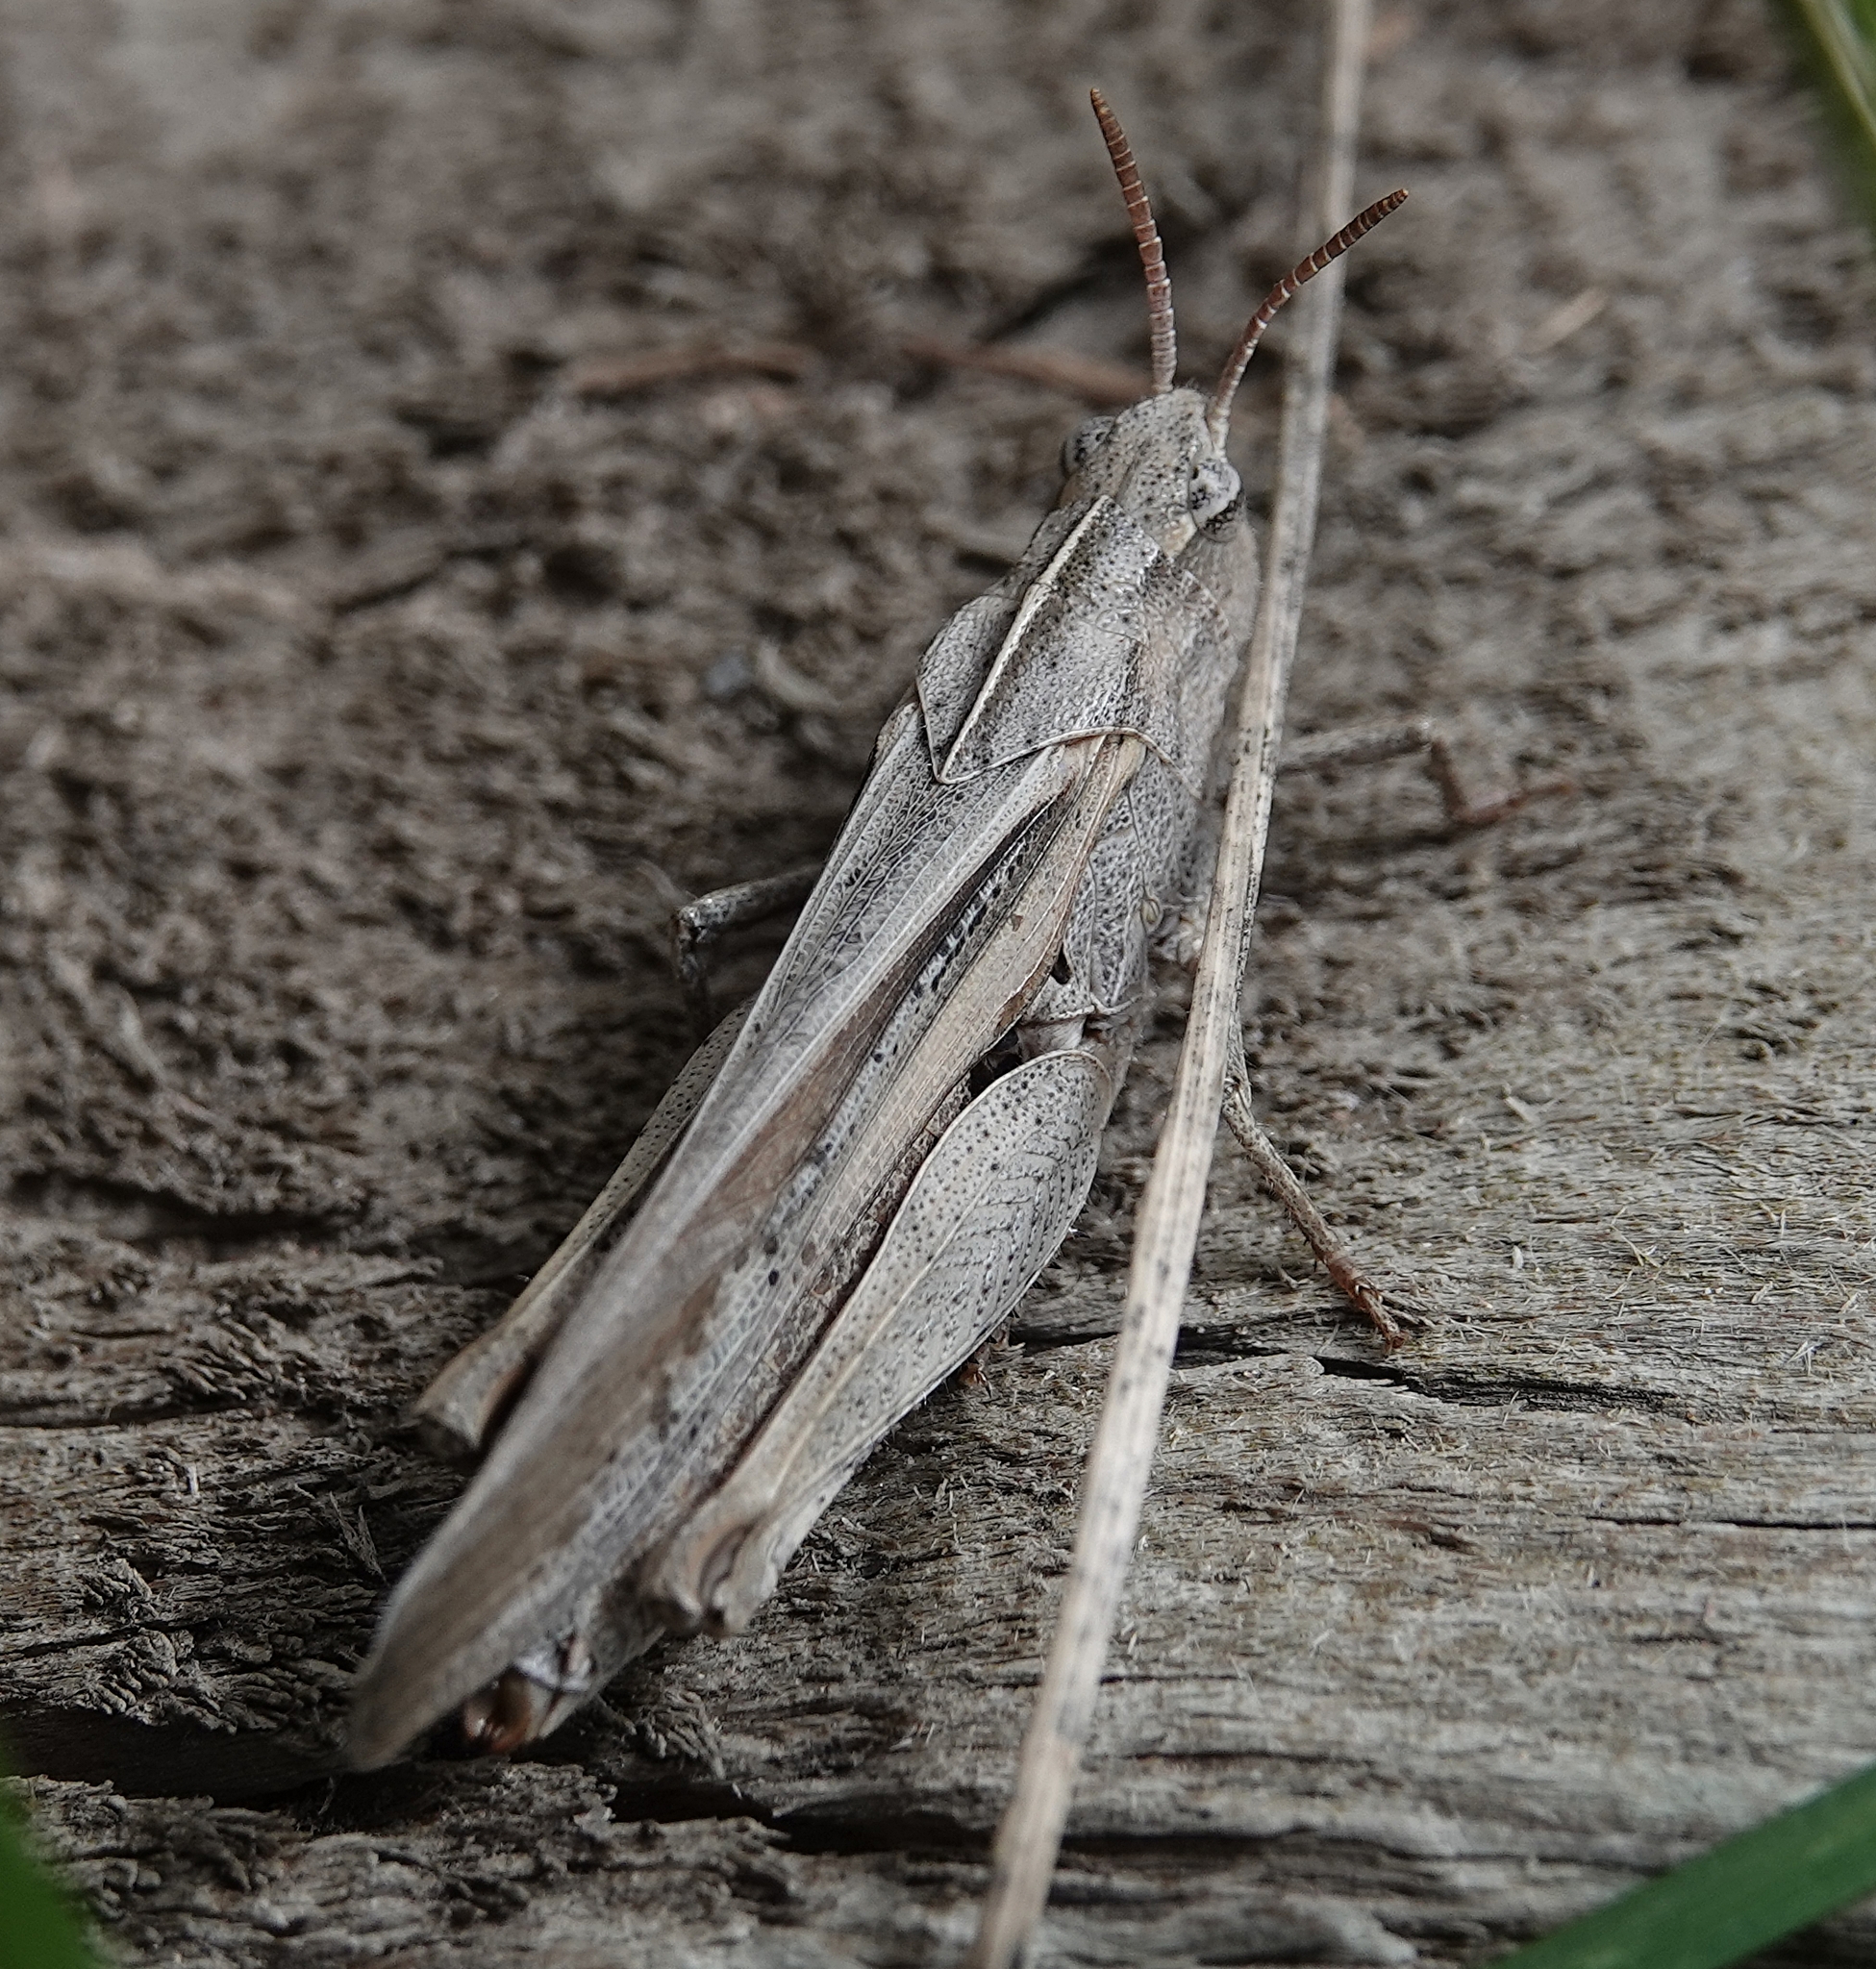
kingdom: Animalia
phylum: Arthropoda
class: Insecta
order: Orthoptera
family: Acrididae
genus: Chortophaga
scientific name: Chortophaga viridifasciata
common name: Green-striped grasshopper
